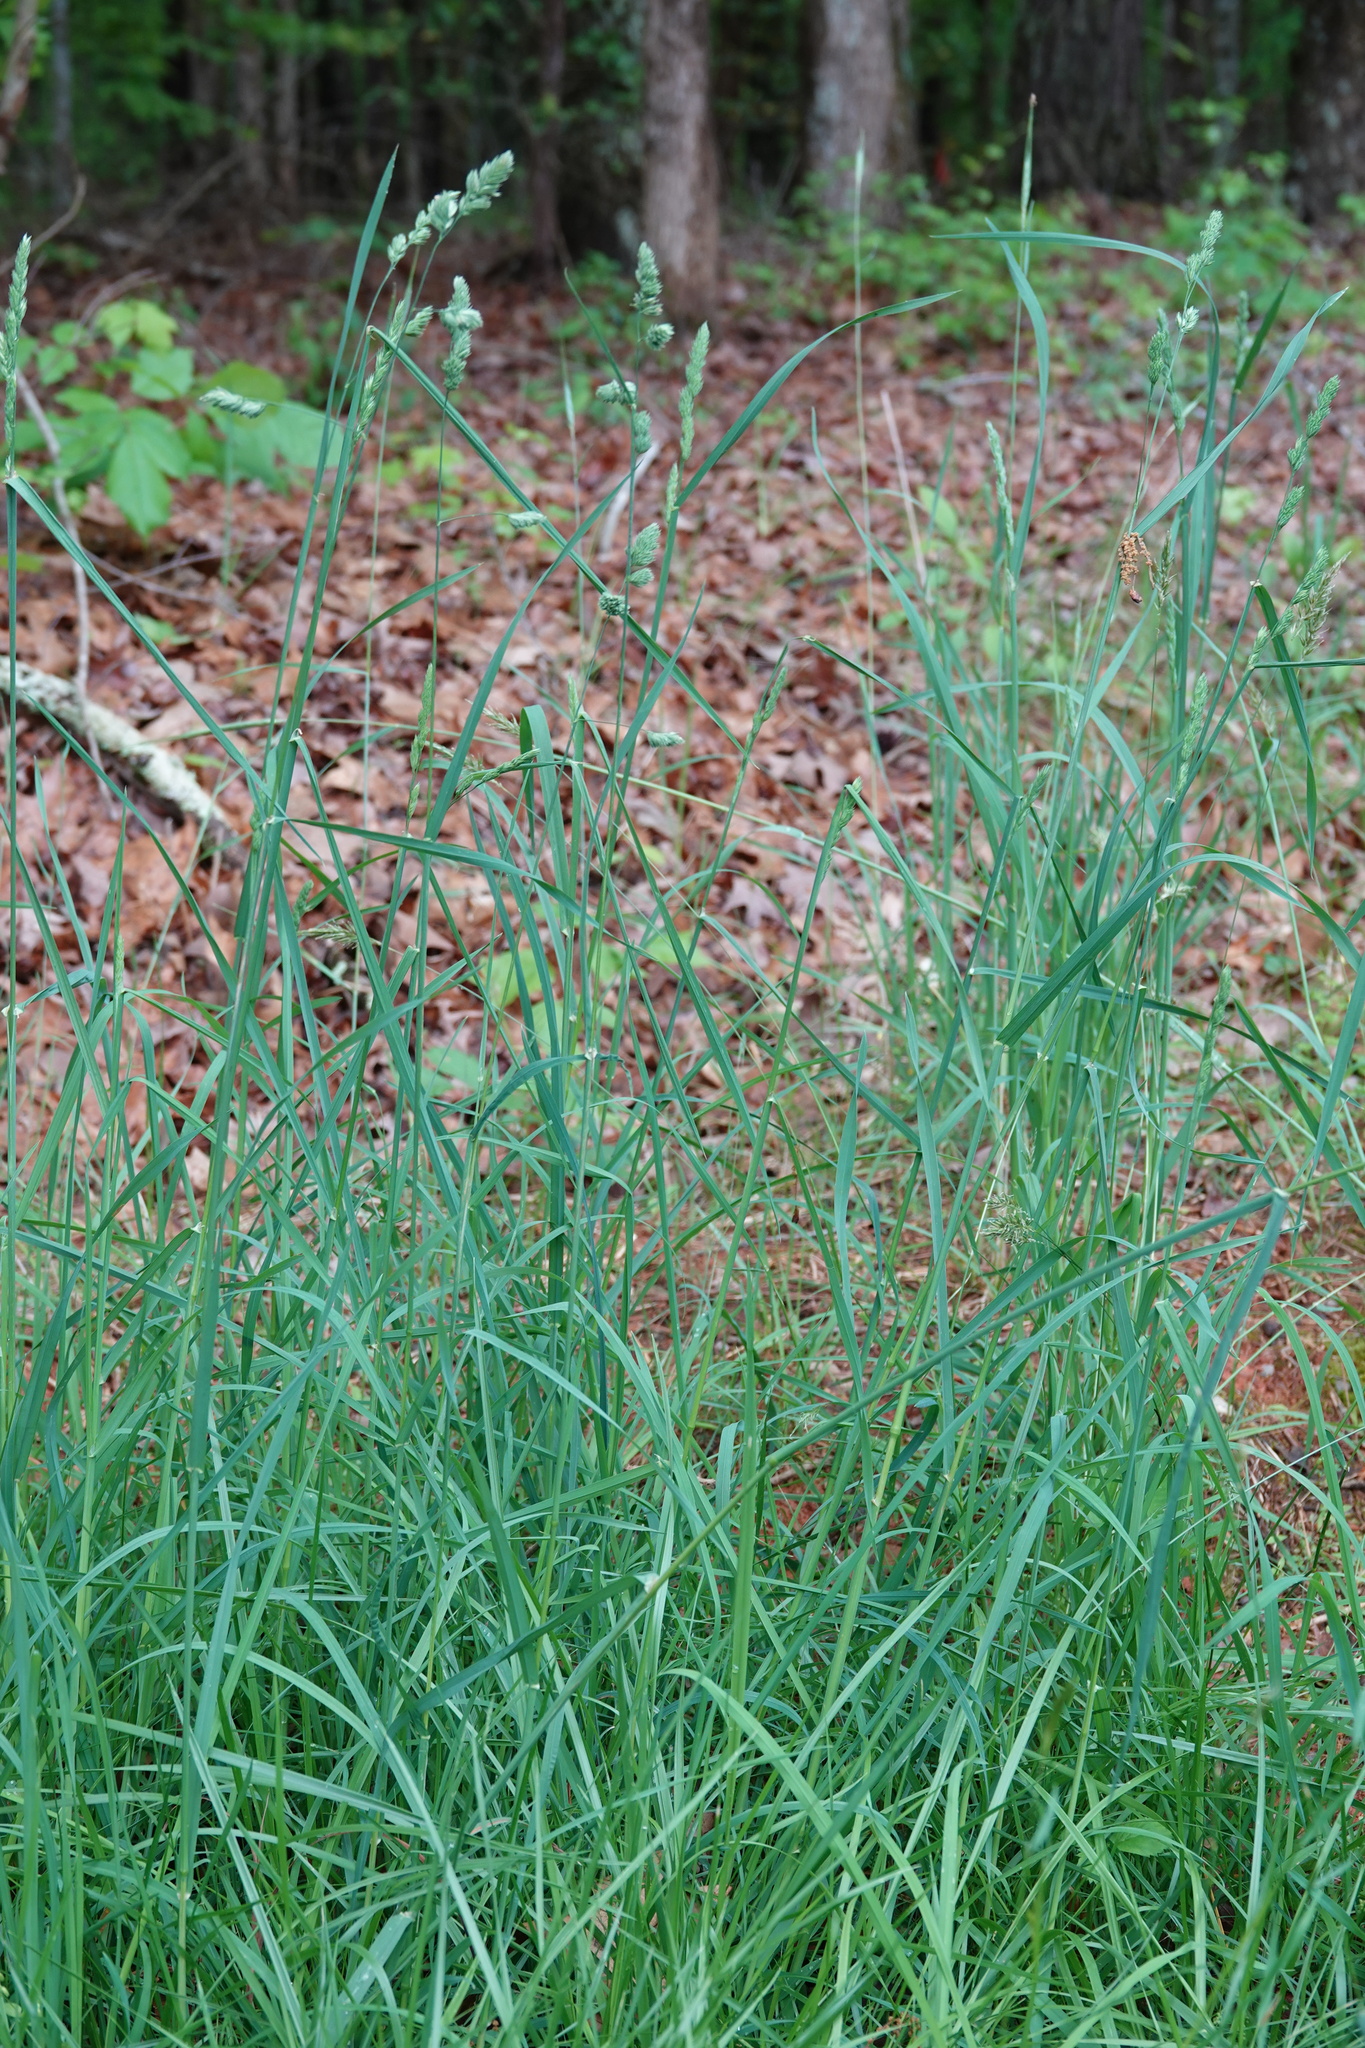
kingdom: Plantae
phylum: Tracheophyta
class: Liliopsida
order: Poales
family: Poaceae
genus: Dactylis
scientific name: Dactylis glomerata
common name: Orchardgrass
